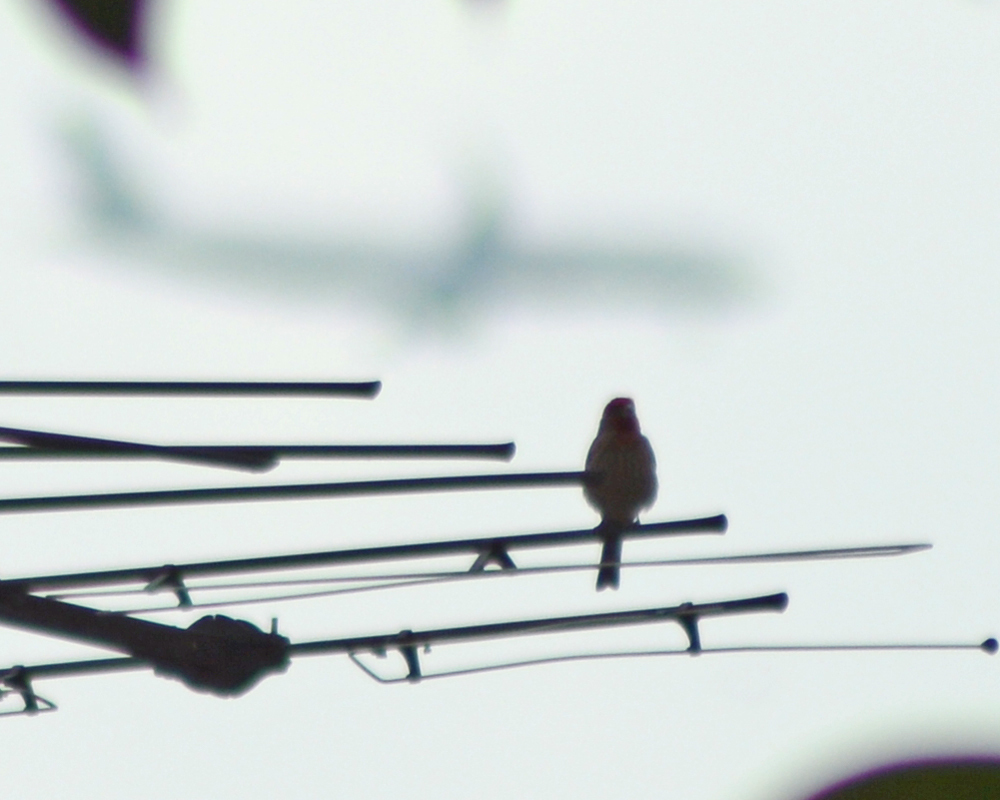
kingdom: Animalia
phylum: Chordata
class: Aves
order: Passeriformes
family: Fringillidae
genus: Haemorhous
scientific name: Haemorhous mexicanus
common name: House finch
